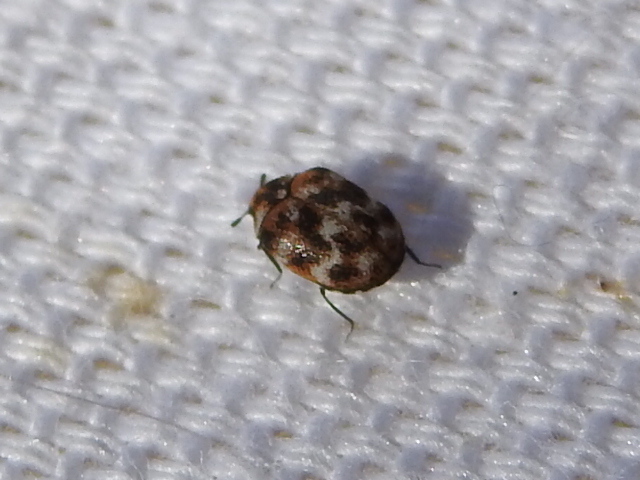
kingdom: Animalia
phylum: Arthropoda
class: Insecta
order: Coleoptera
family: Dermestidae
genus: Anthrenus
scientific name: Anthrenus verbasci
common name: Varied carpet beetle
